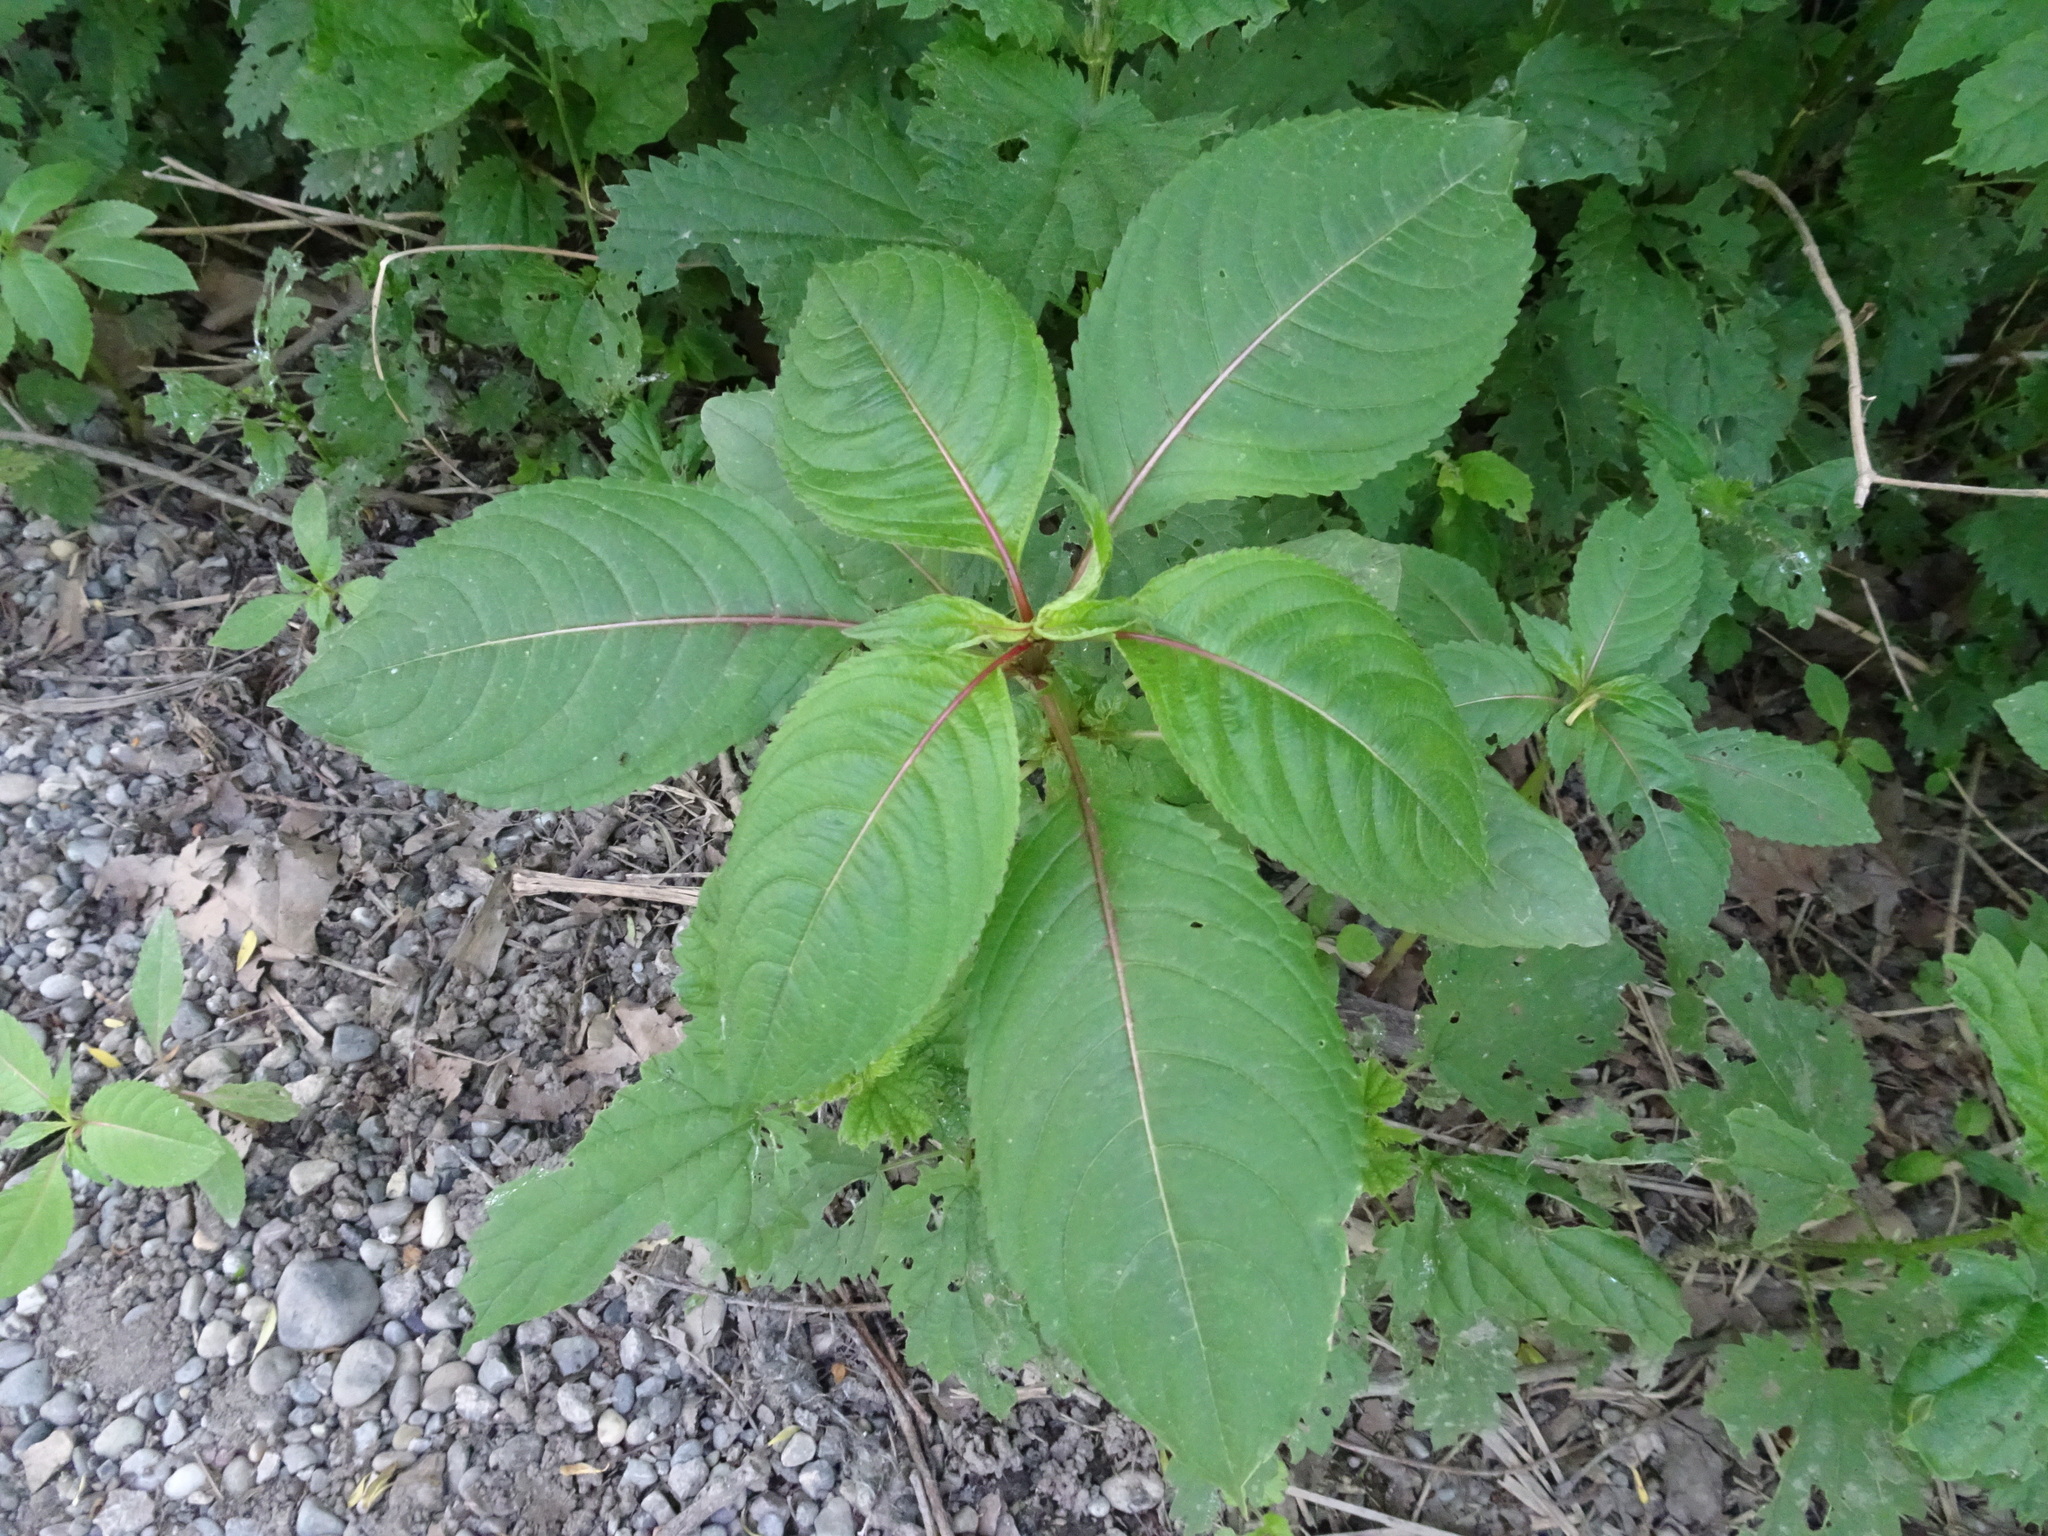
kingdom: Plantae
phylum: Tracheophyta
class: Magnoliopsida
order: Ericales
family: Balsaminaceae
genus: Impatiens
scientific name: Impatiens glandulifera
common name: Himalayan balsam
